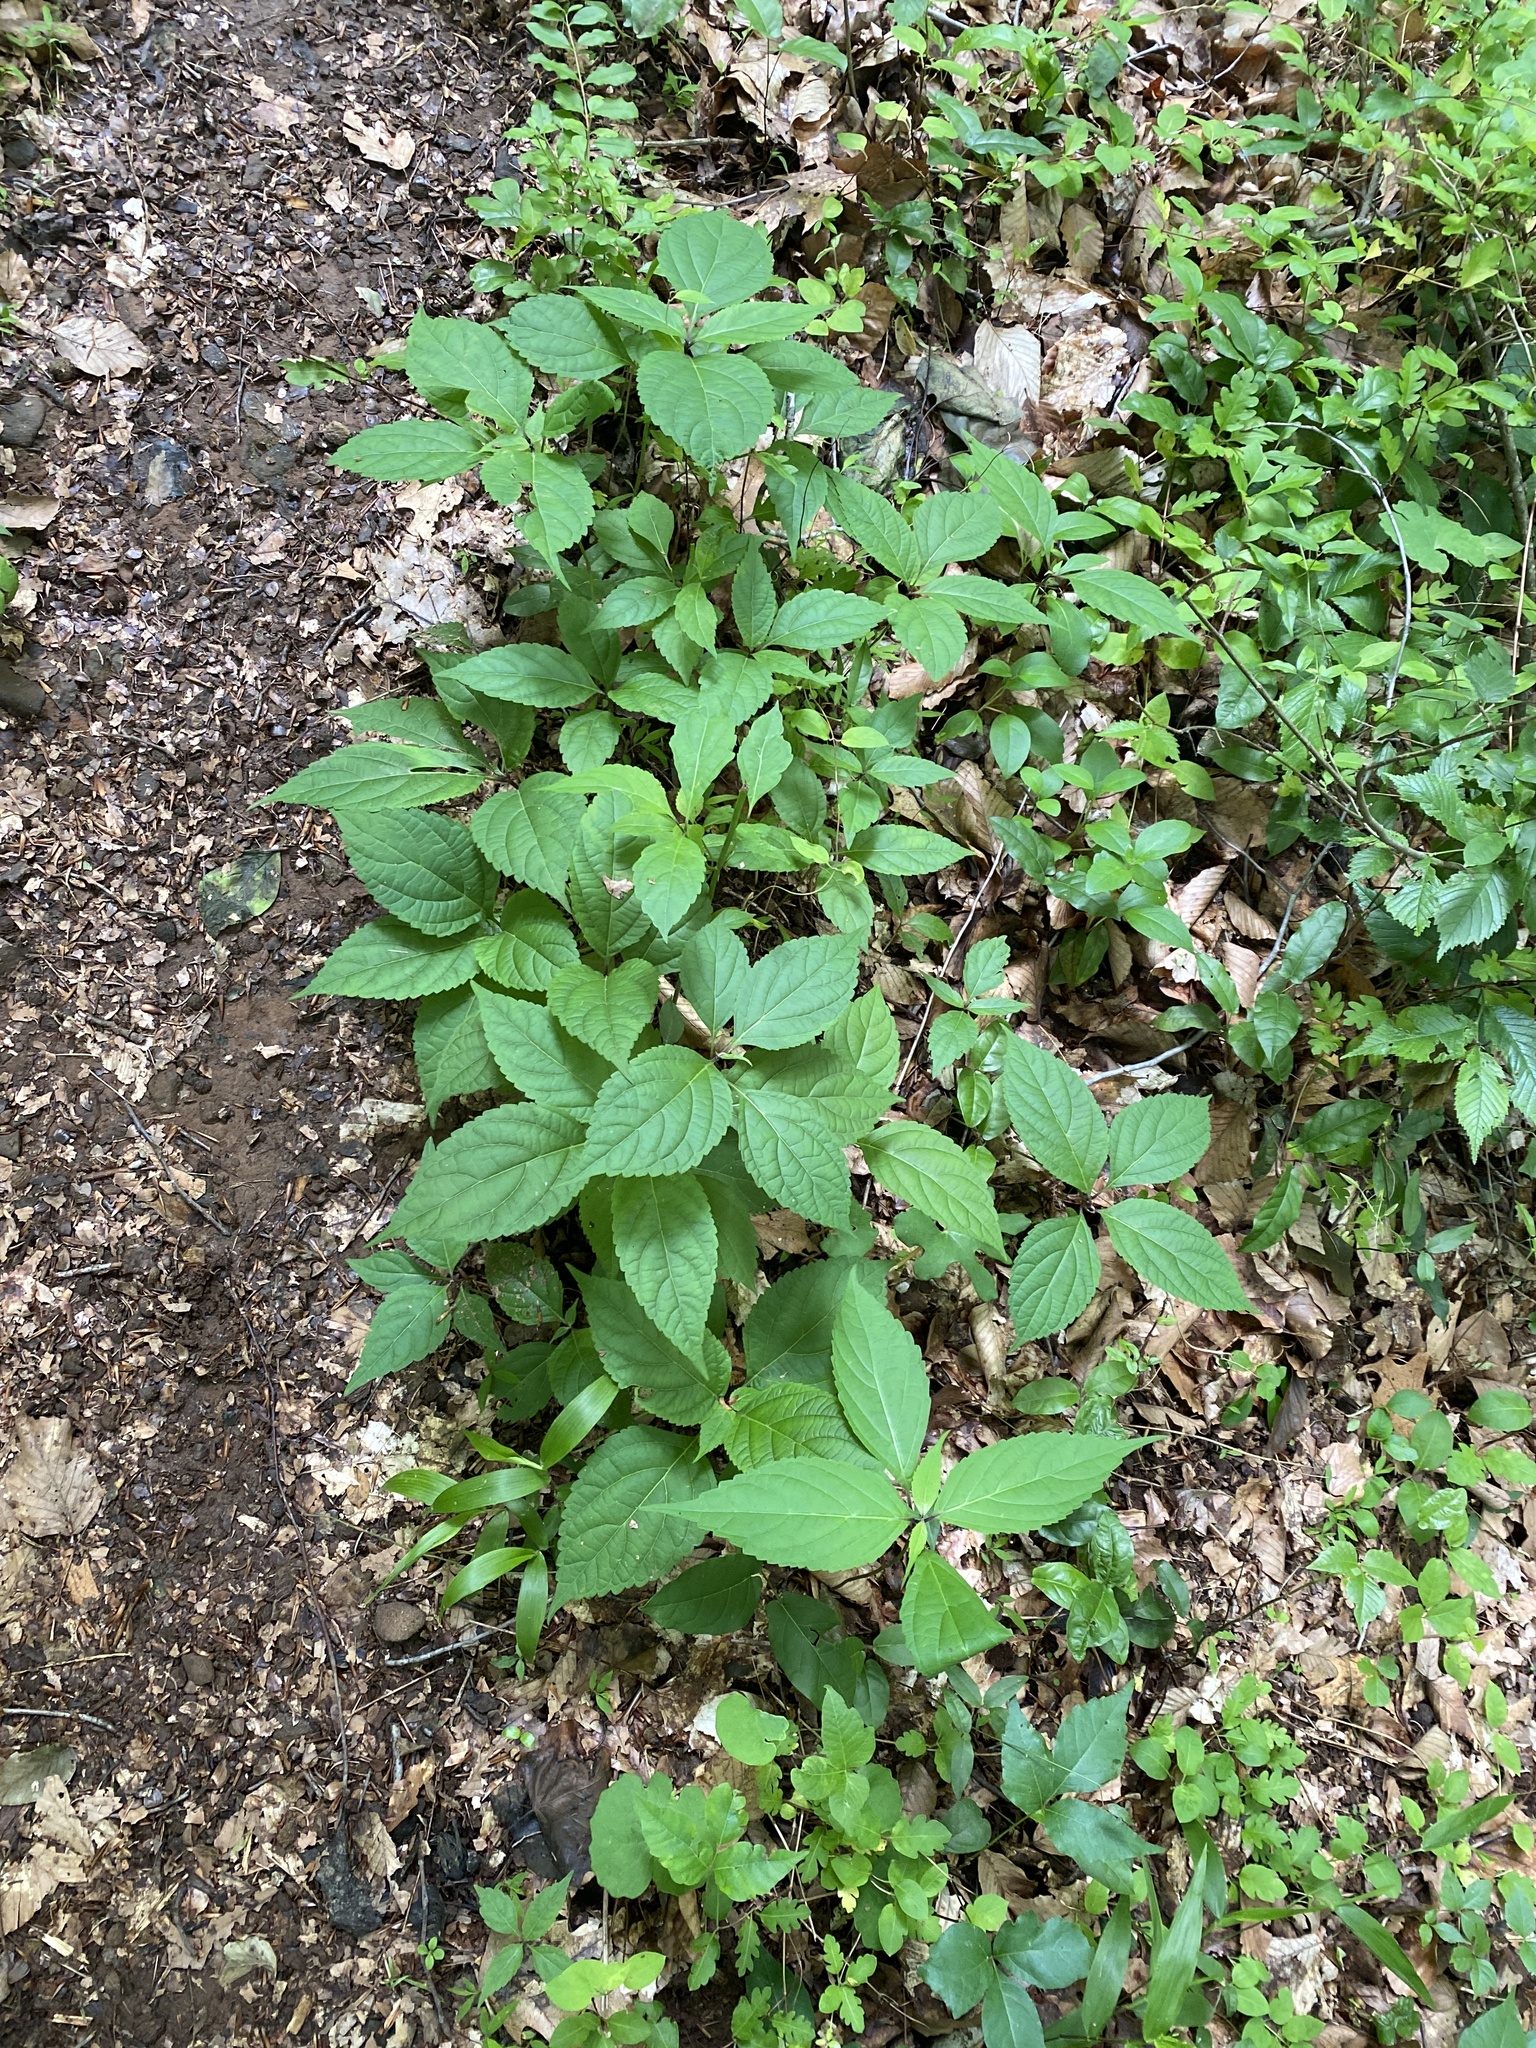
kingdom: Plantae
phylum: Tracheophyta
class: Magnoliopsida
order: Lamiales
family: Lamiaceae
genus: Collinsonia
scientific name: Collinsonia canadensis
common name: Northern horsebalm
